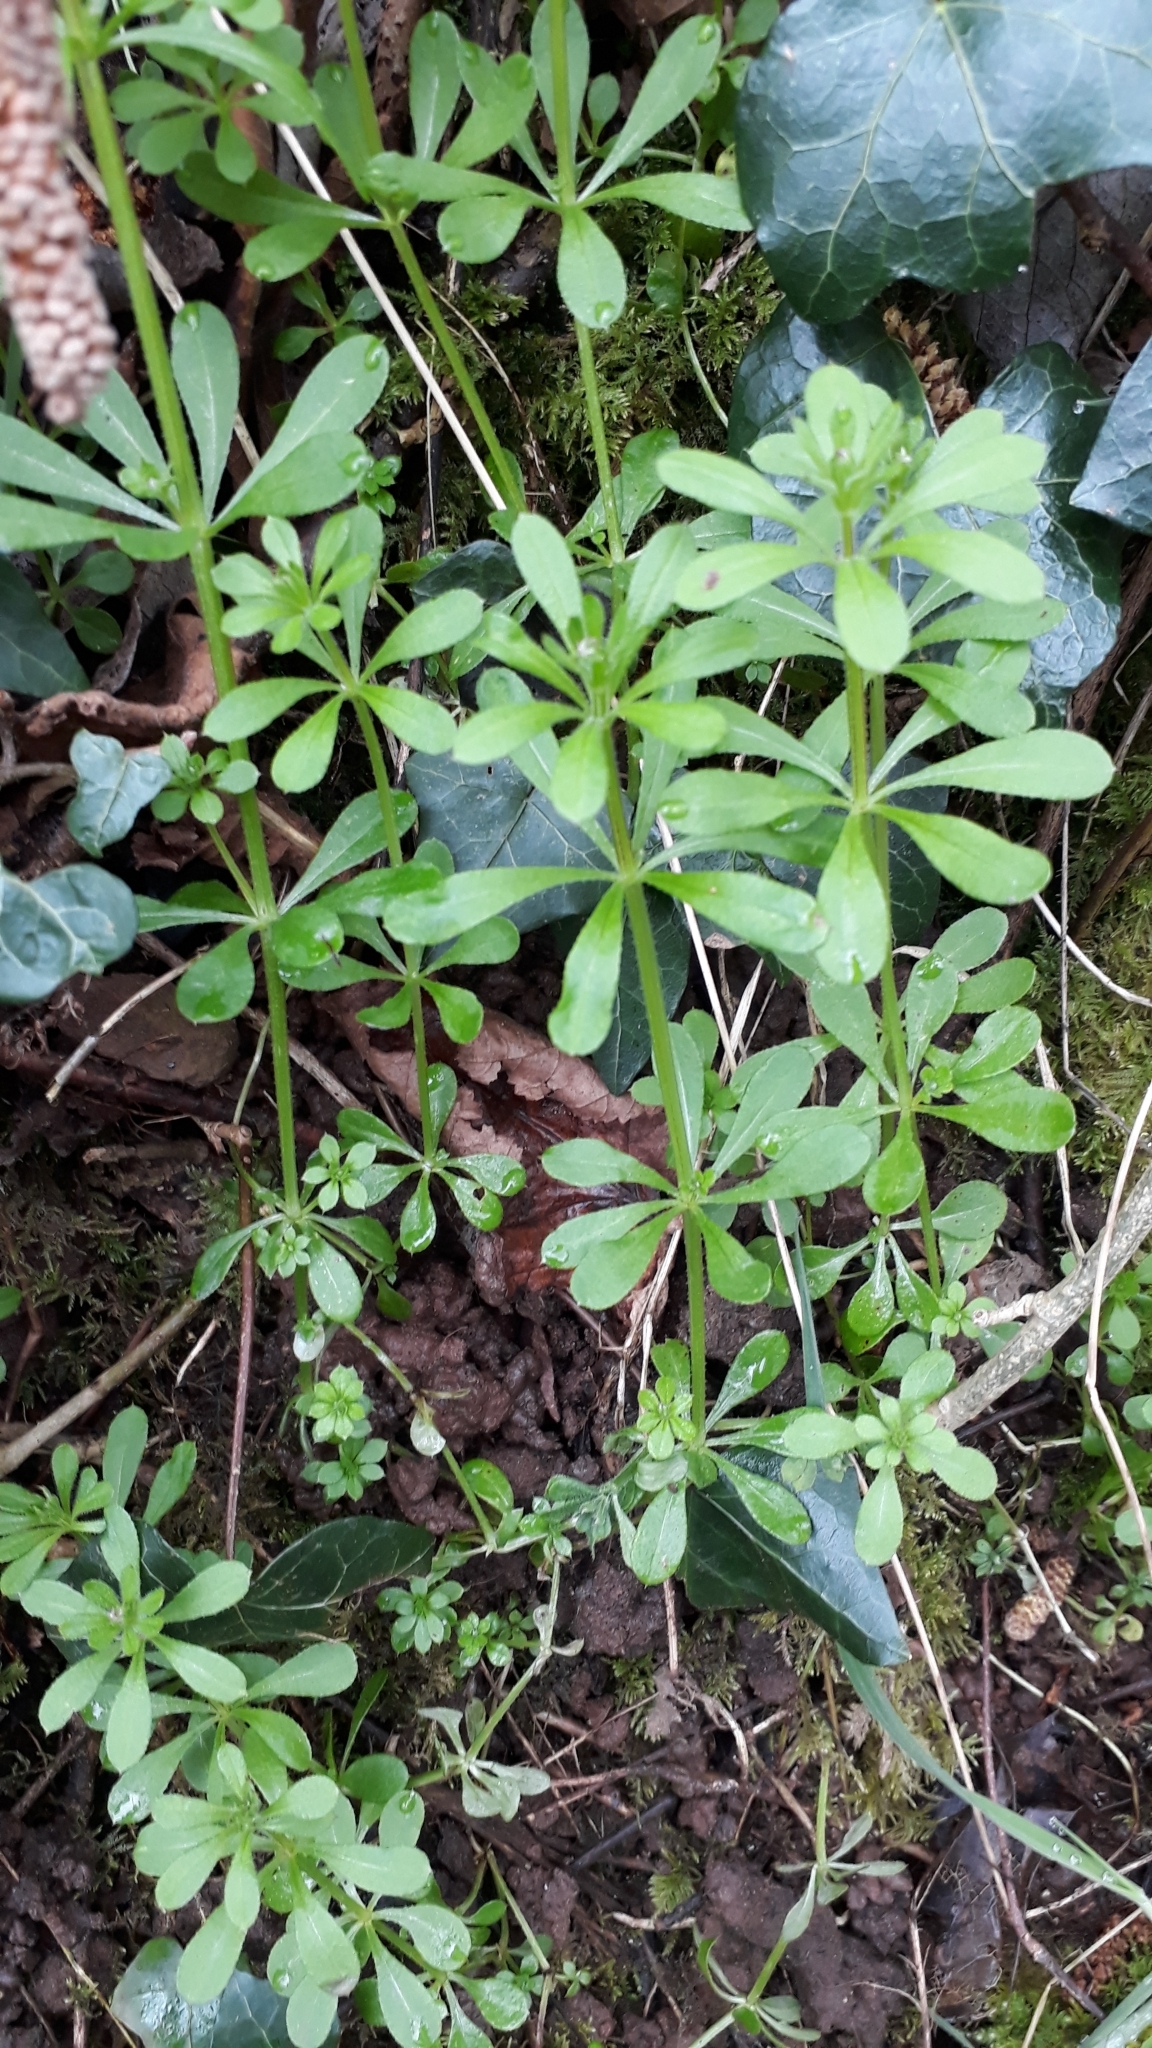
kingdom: Plantae
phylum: Tracheophyta
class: Magnoliopsida
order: Gentianales
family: Rubiaceae
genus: Galium
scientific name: Galium aparine
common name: Cleavers
